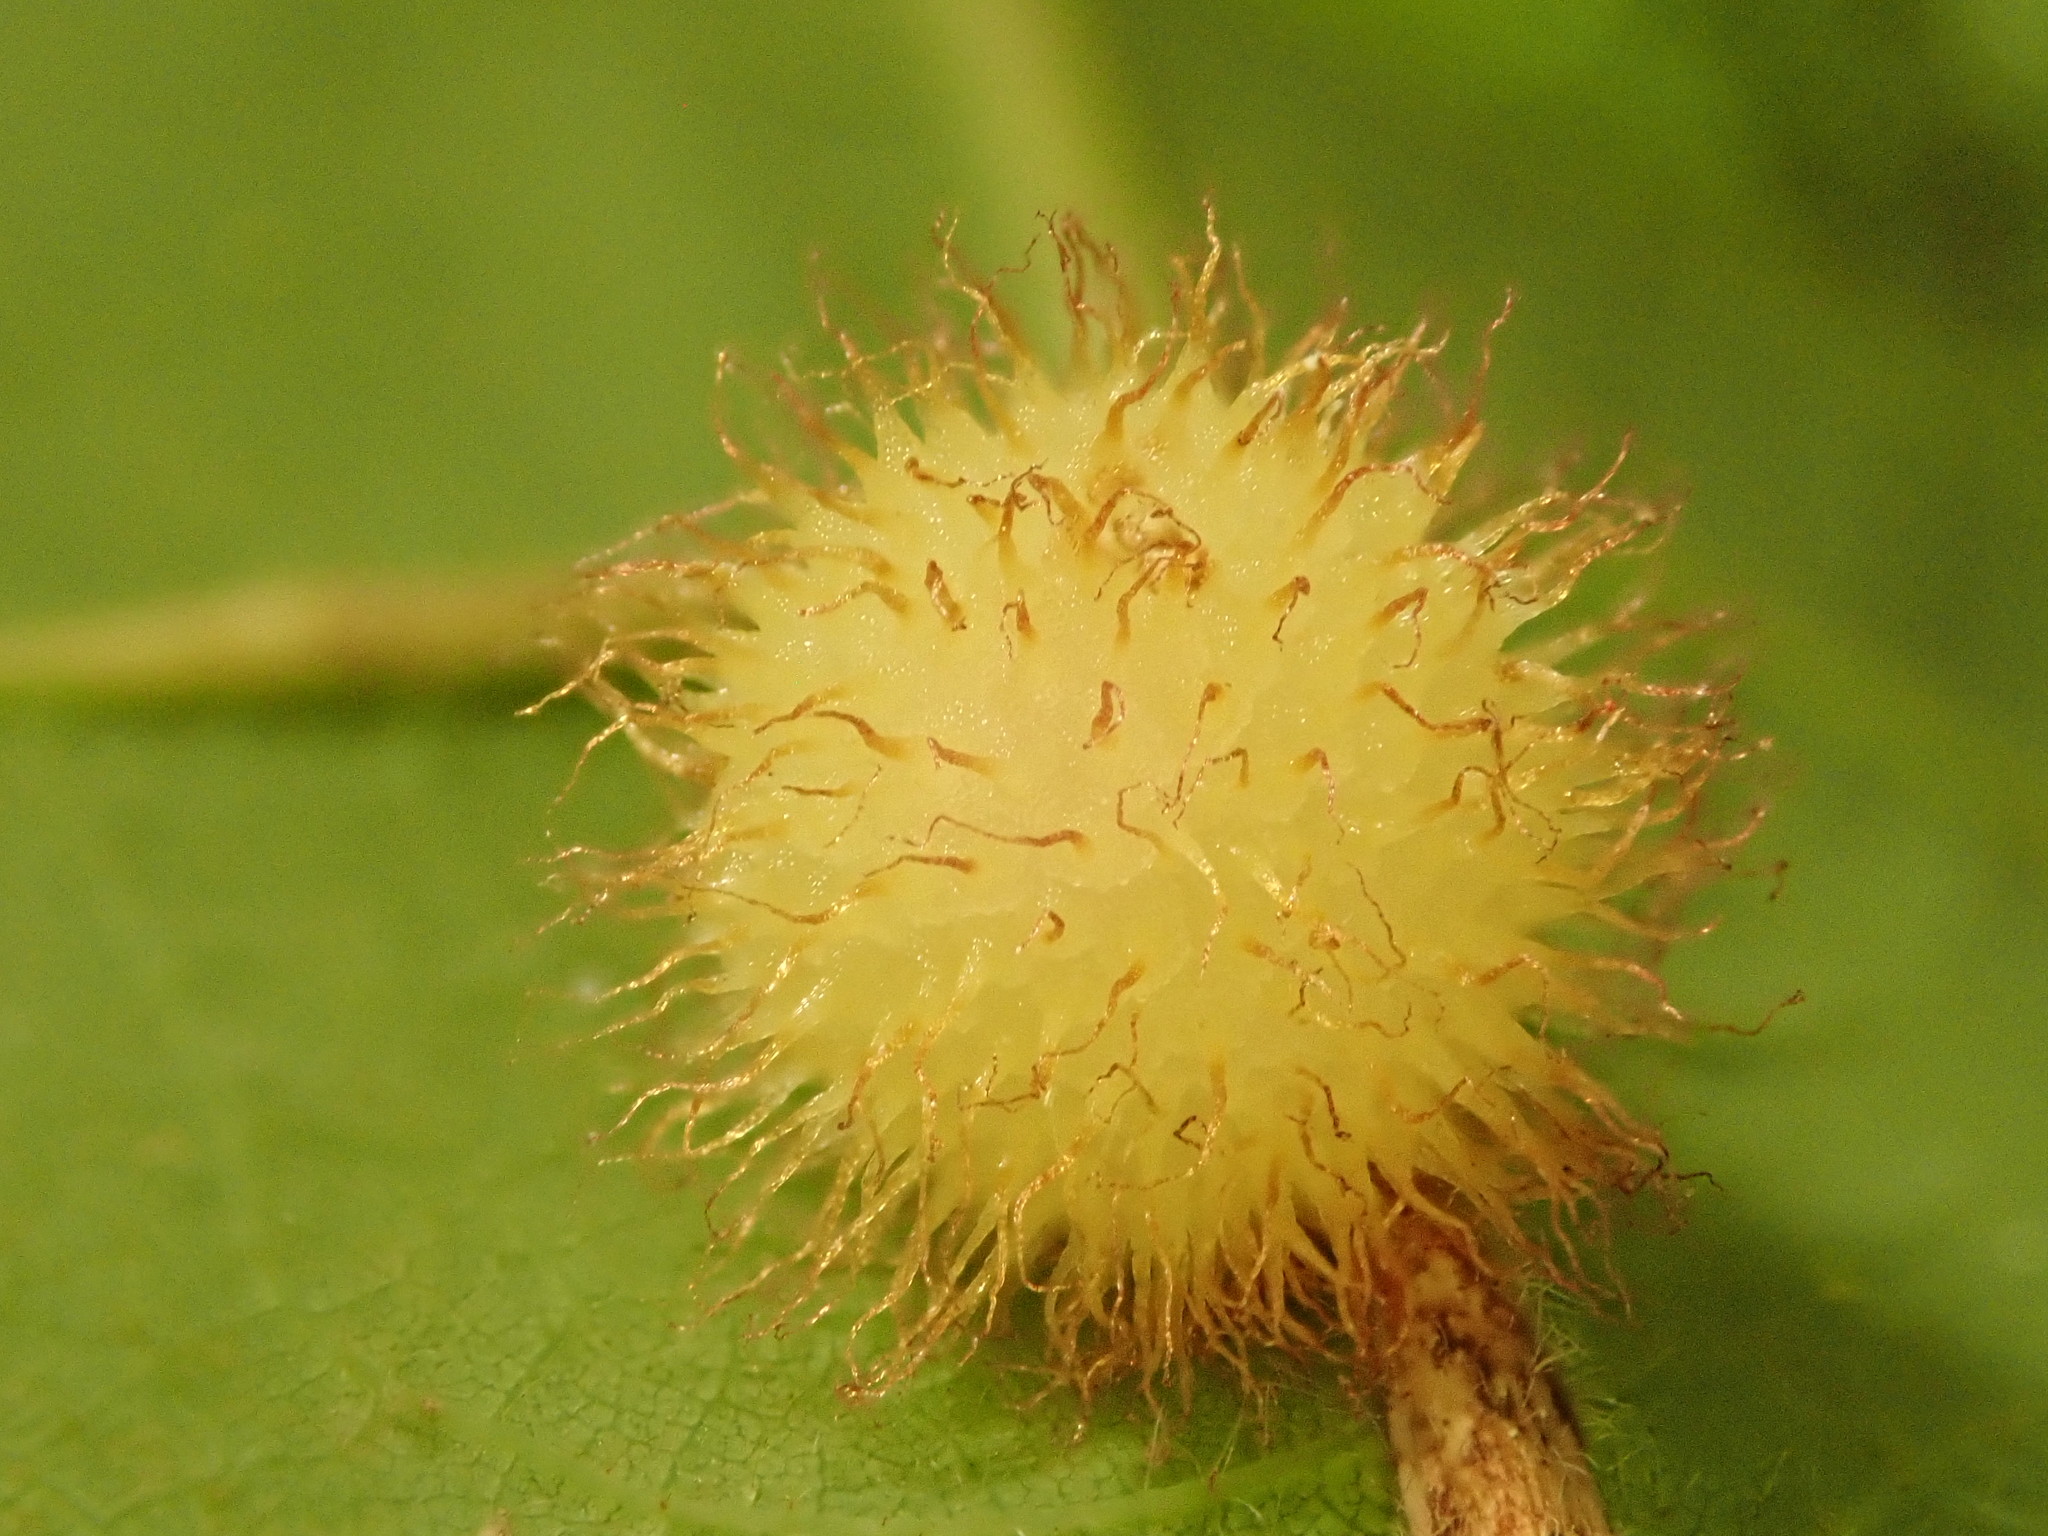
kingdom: Animalia
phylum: Arthropoda
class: Insecta
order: Hymenoptera
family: Cynipidae
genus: Acraspis
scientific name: Acraspis villosa
